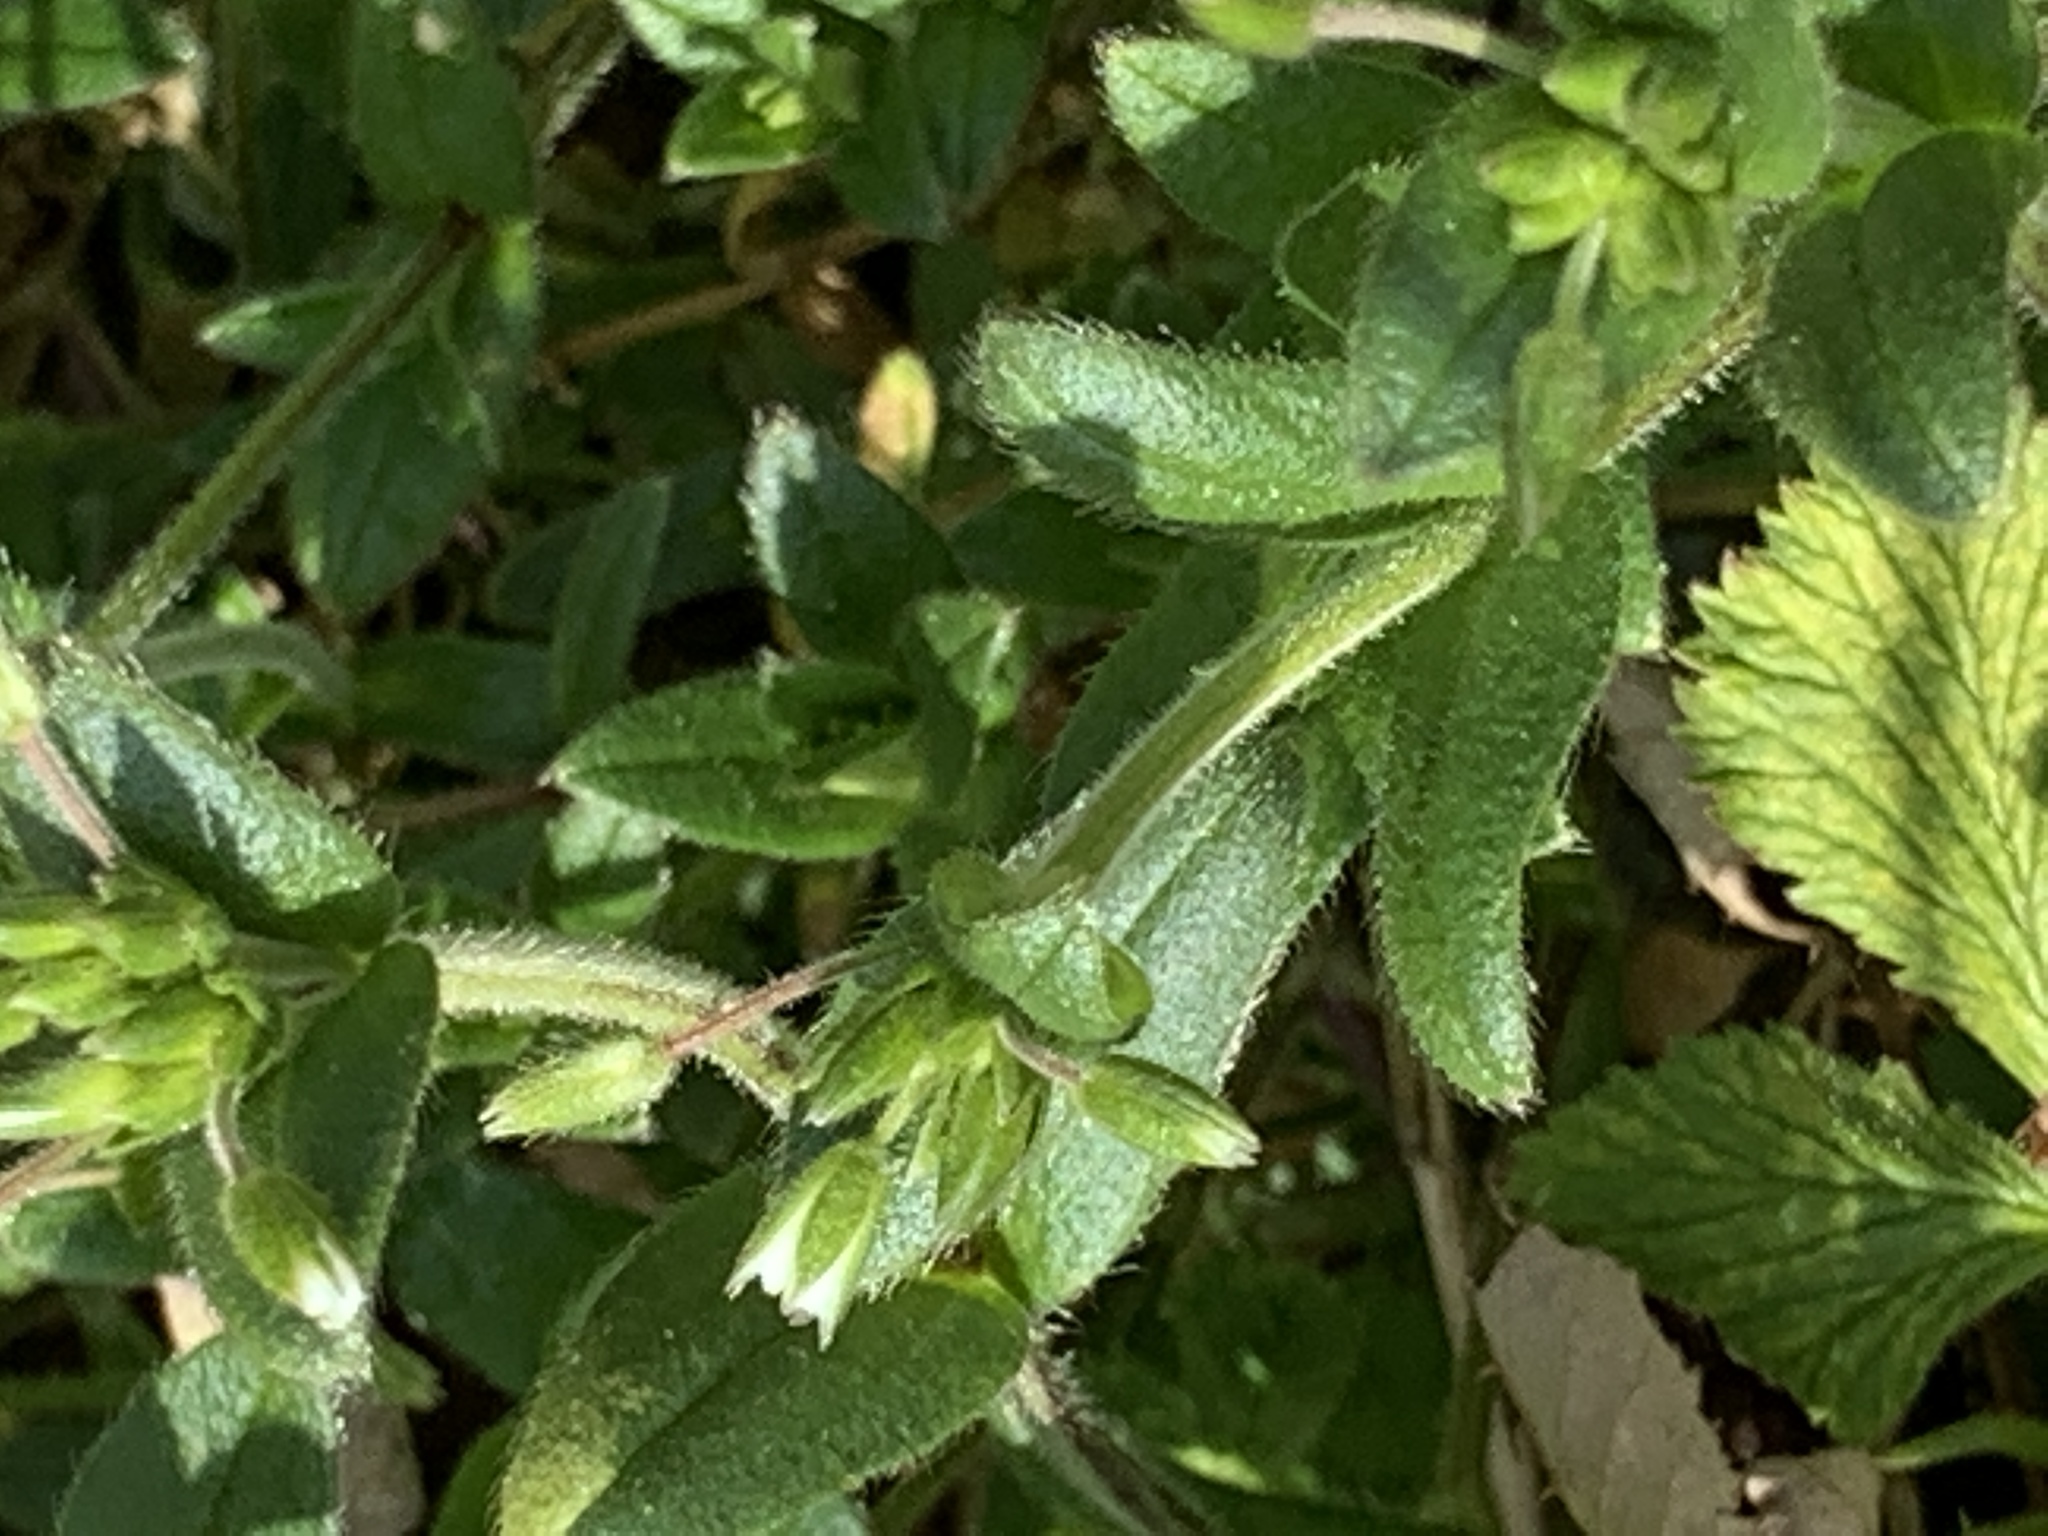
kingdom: Plantae
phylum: Tracheophyta
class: Magnoliopsida
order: Caryophyllales
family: Caryophyllaceae
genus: Cerastium
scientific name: Cerastium fontanum
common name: Common mouse-ear
